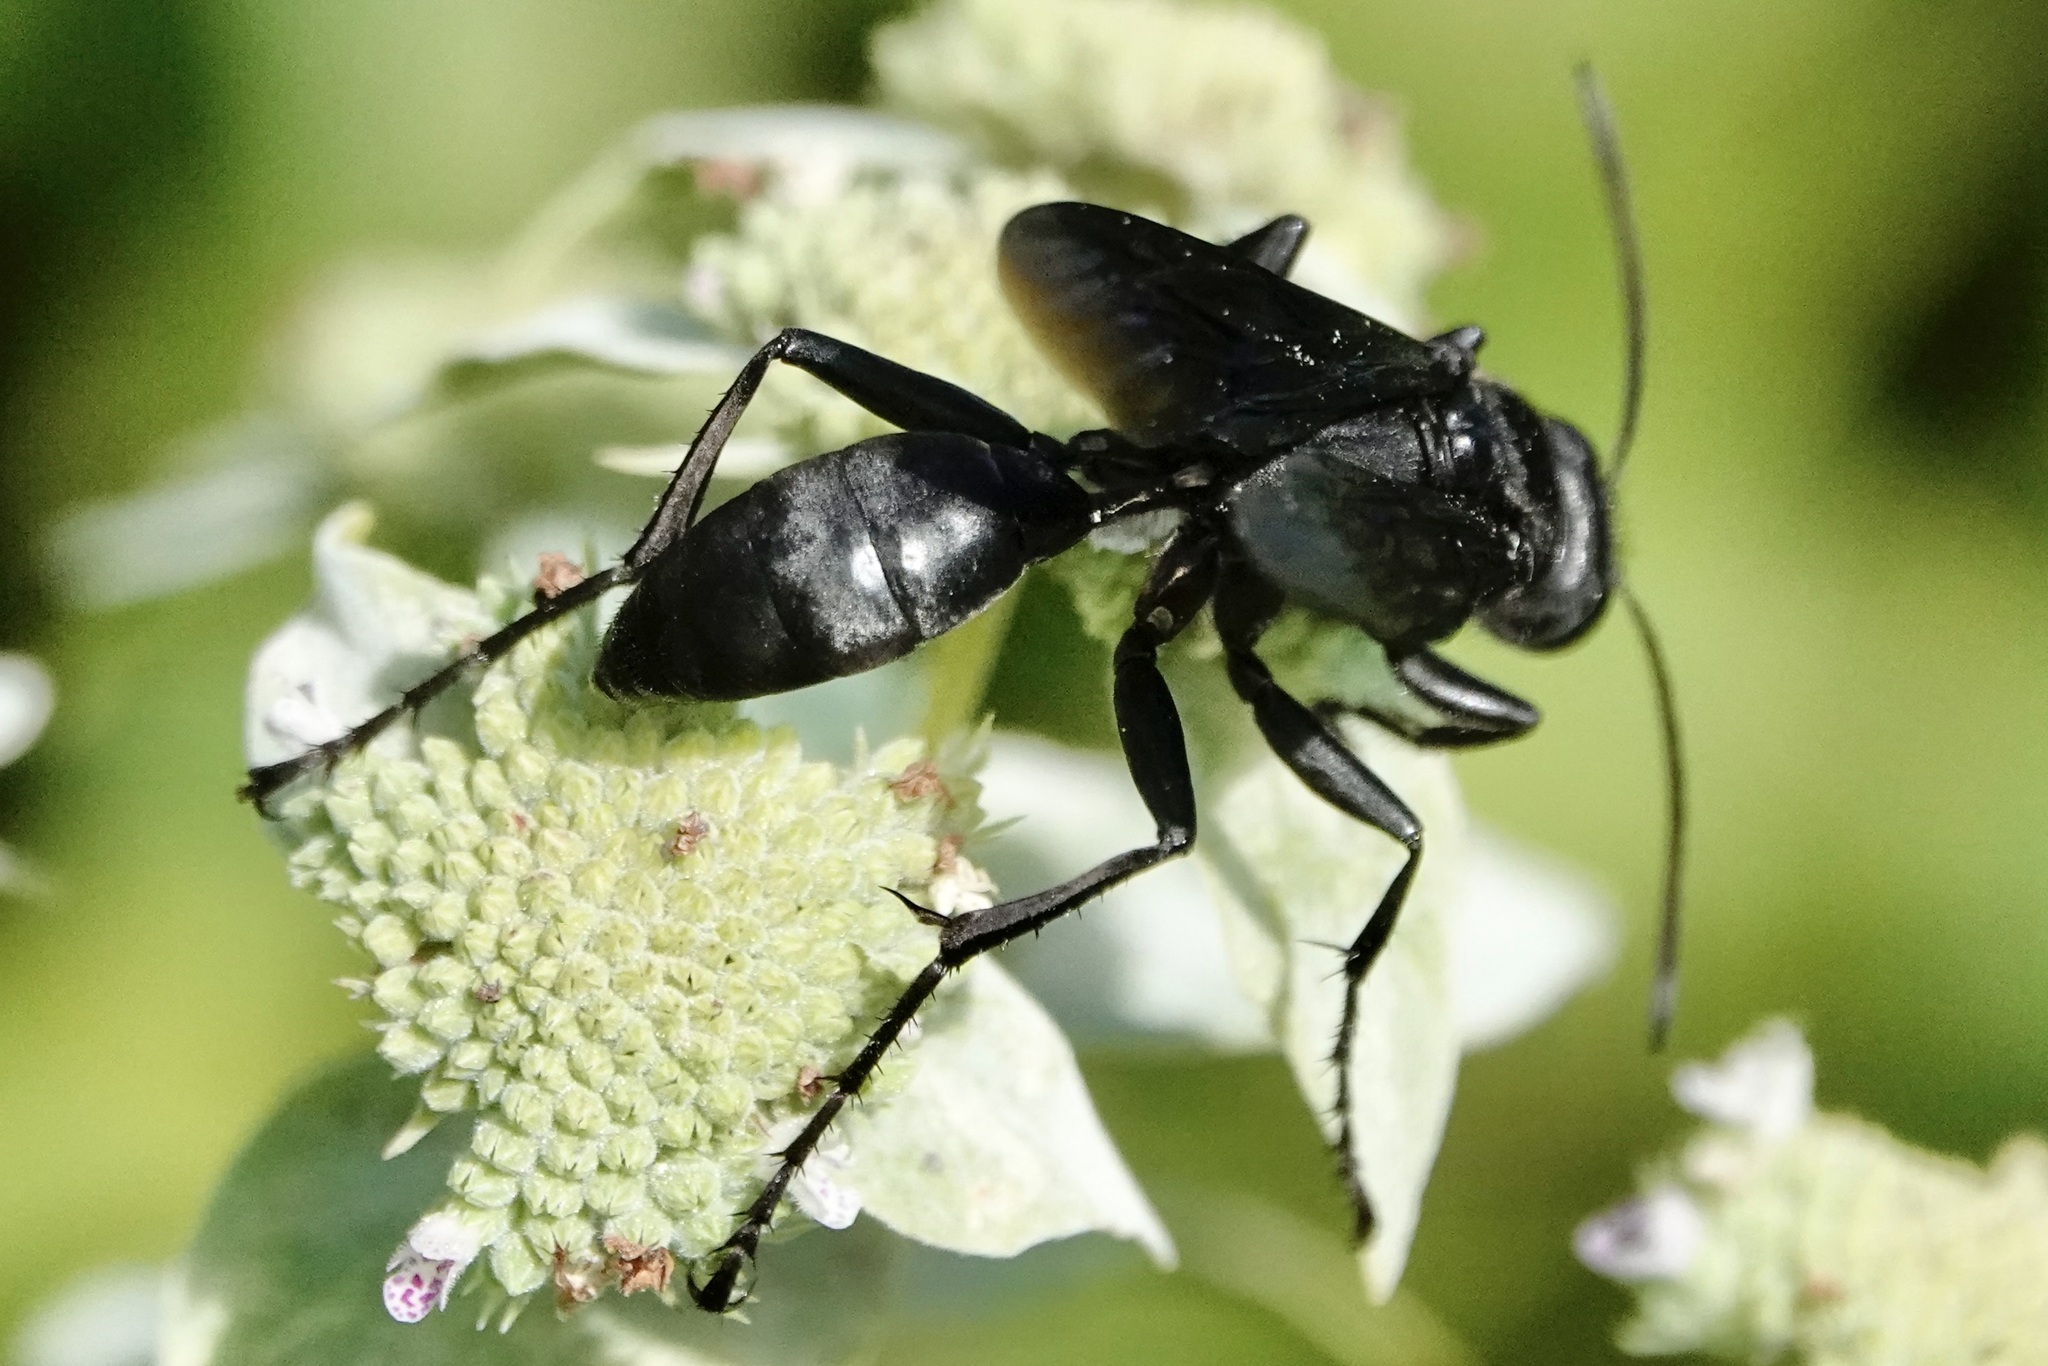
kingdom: Animalia
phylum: Arthropoda
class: Insecta
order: Hymenoptera
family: Sphecidae
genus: Sphex
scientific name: Sphex pensylvanicus
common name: Great black digger wasp
